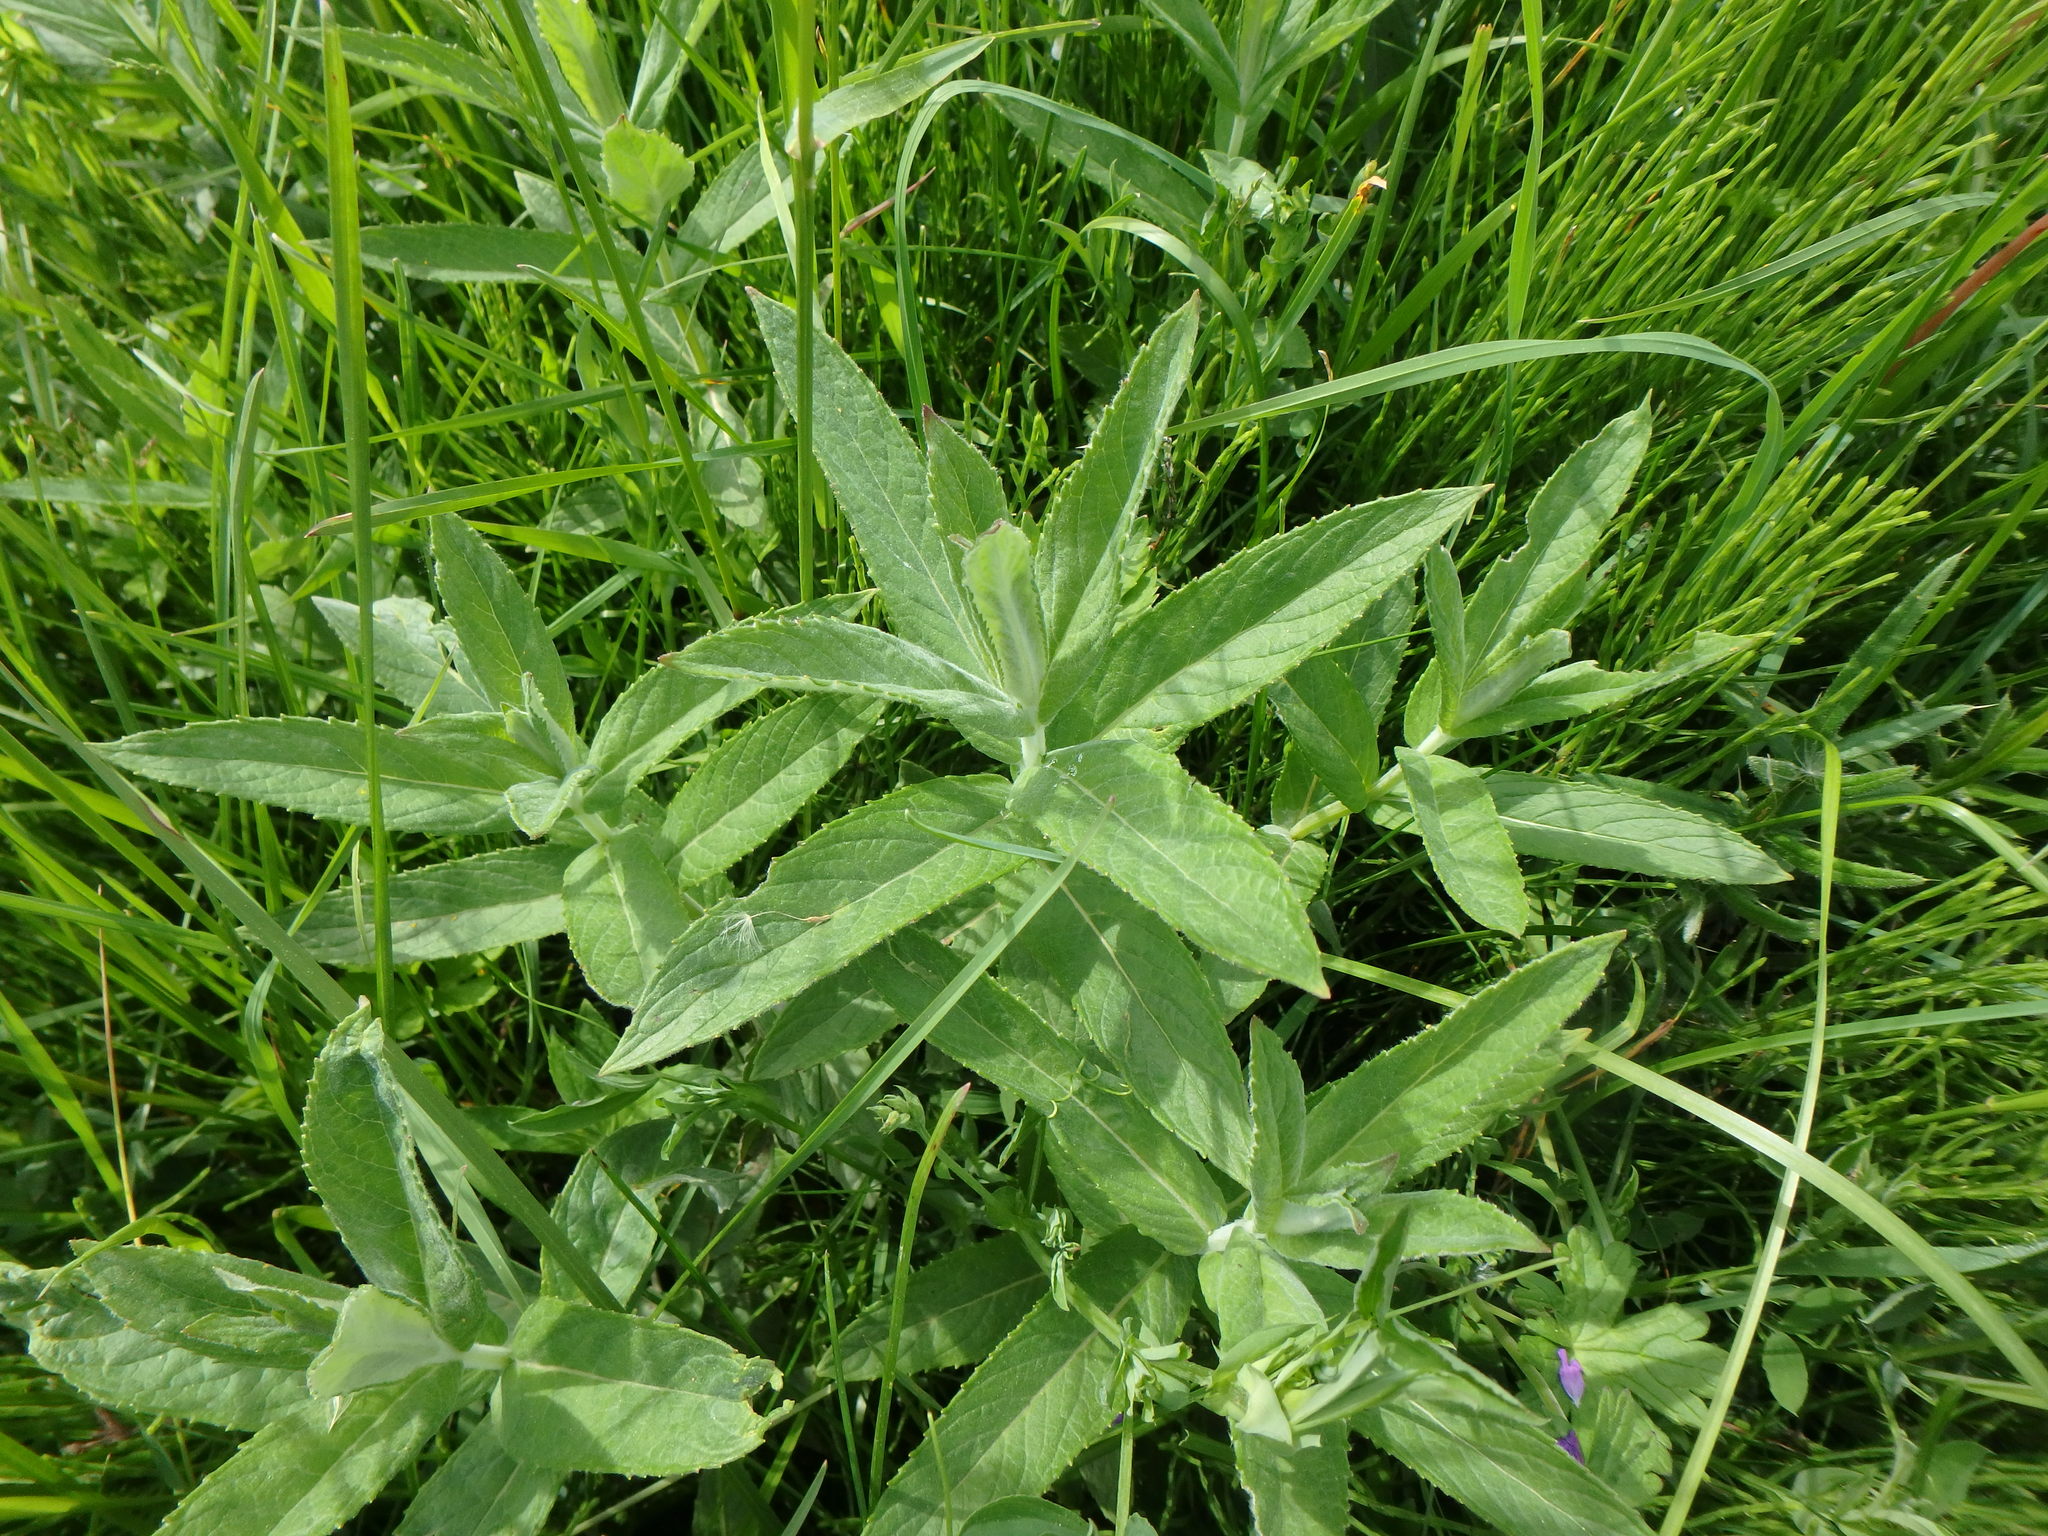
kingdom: Plantae
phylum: Tracheophyta
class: Magnoliopsida
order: Lamiales
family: Lamiaceae
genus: Mentha
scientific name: Mentha longifolia
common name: Horse mint
